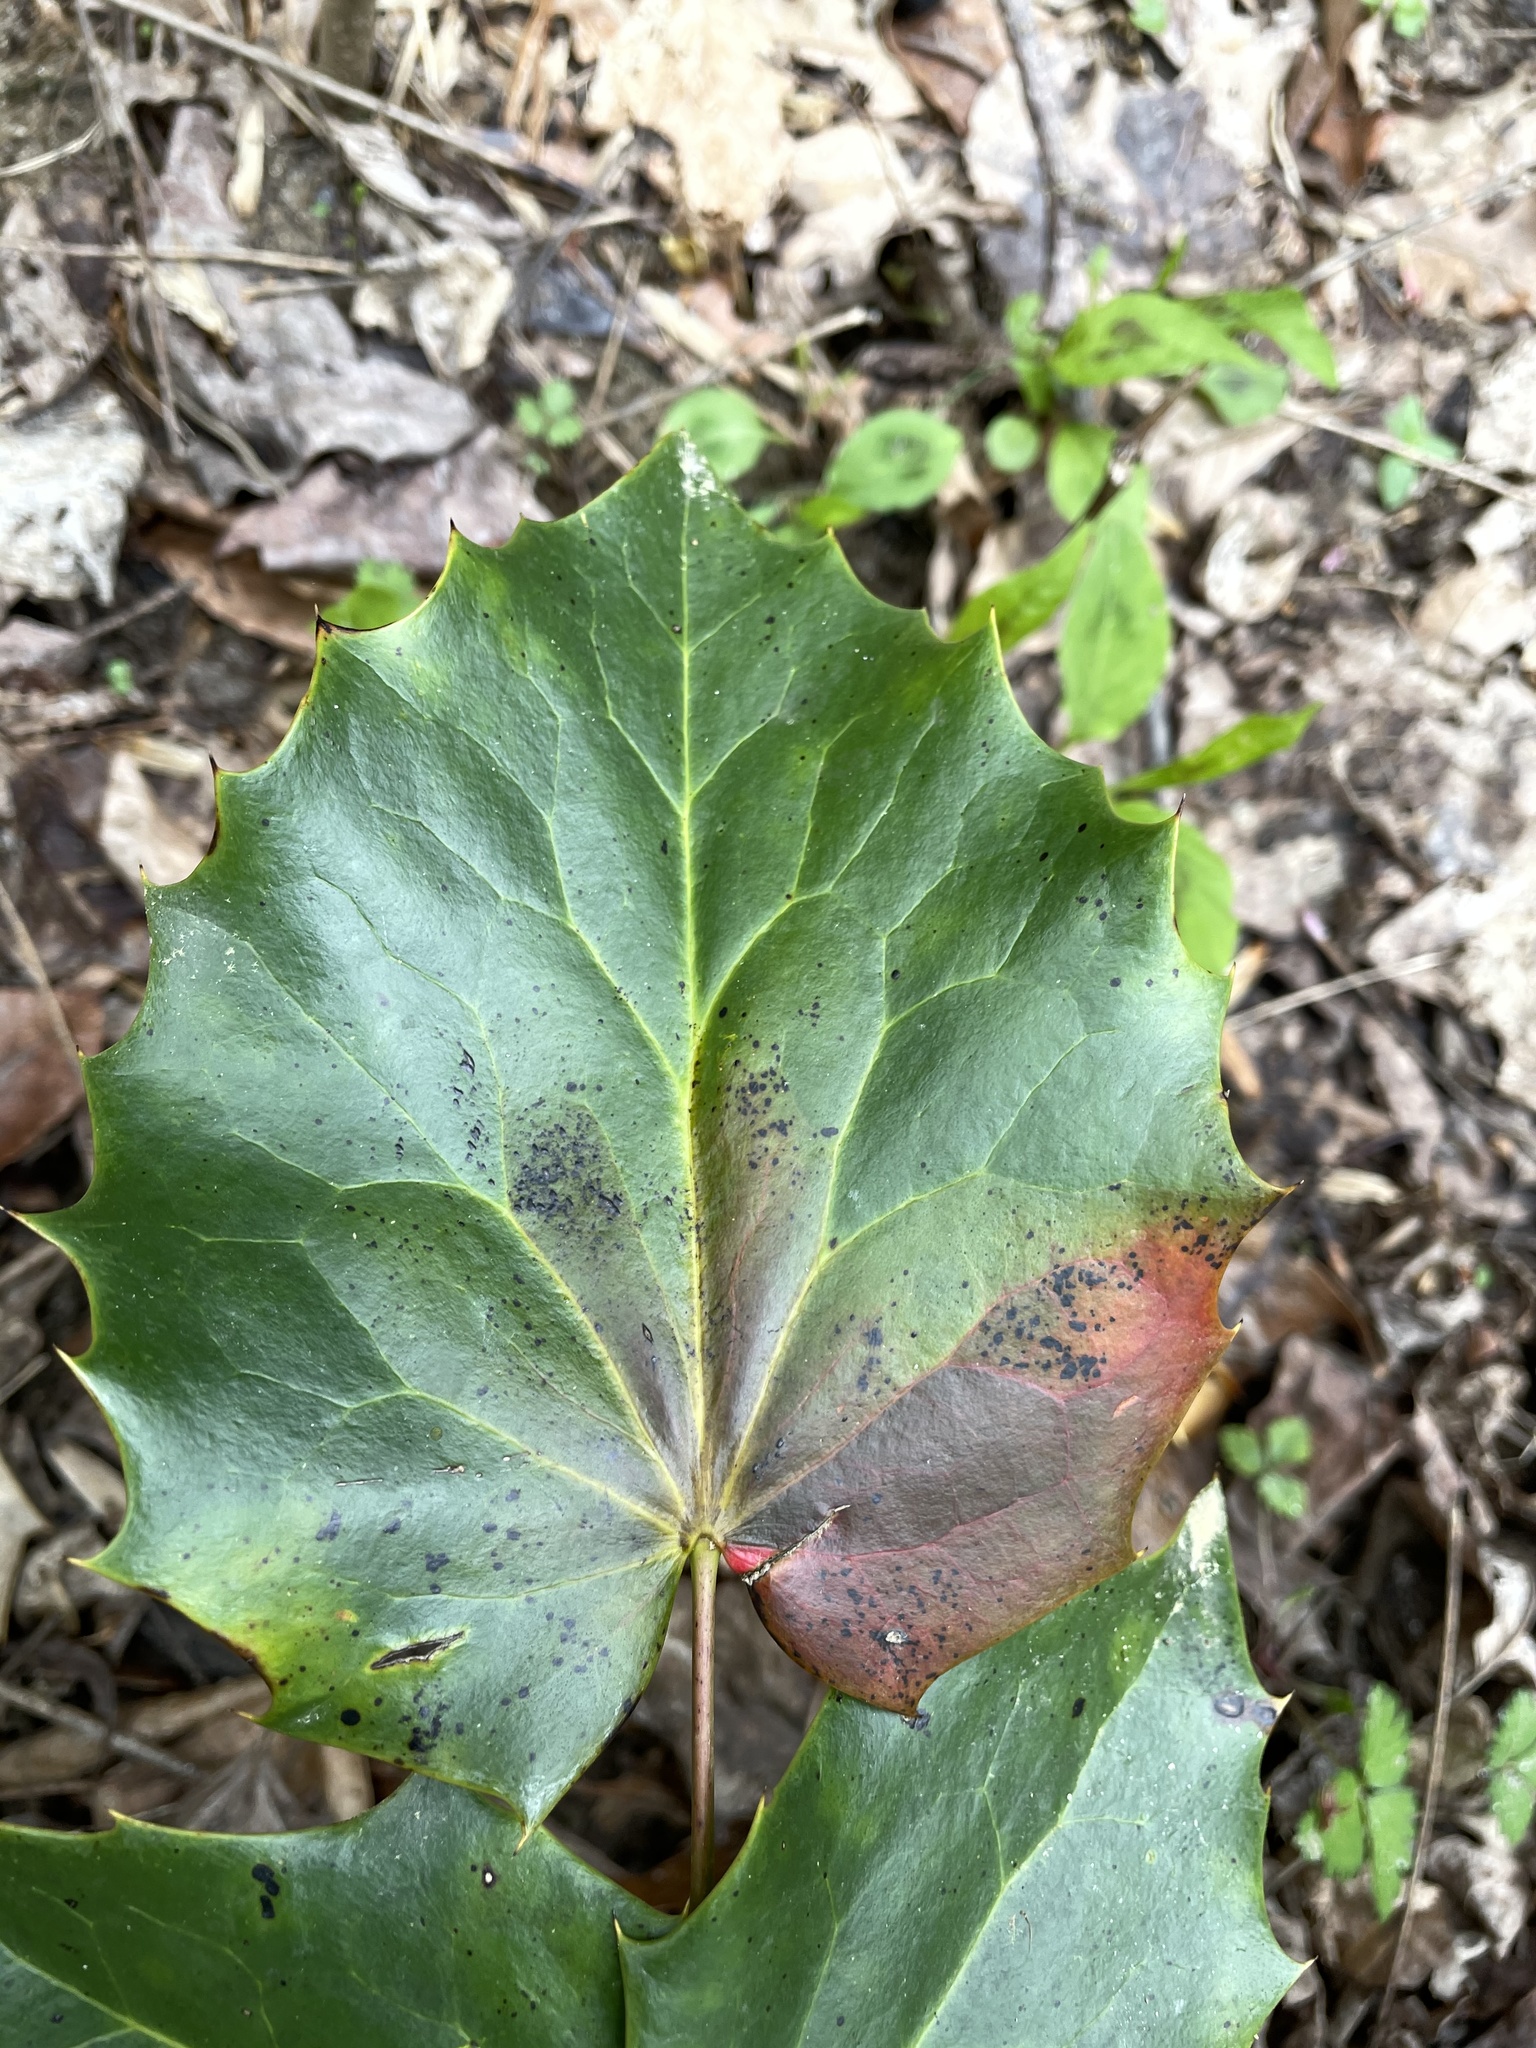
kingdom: Plantae
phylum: Tracheophyta
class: Magnoliopsida
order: Ranunculales
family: Berberidaceae
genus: Mahonia
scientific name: Mahonia bealei
